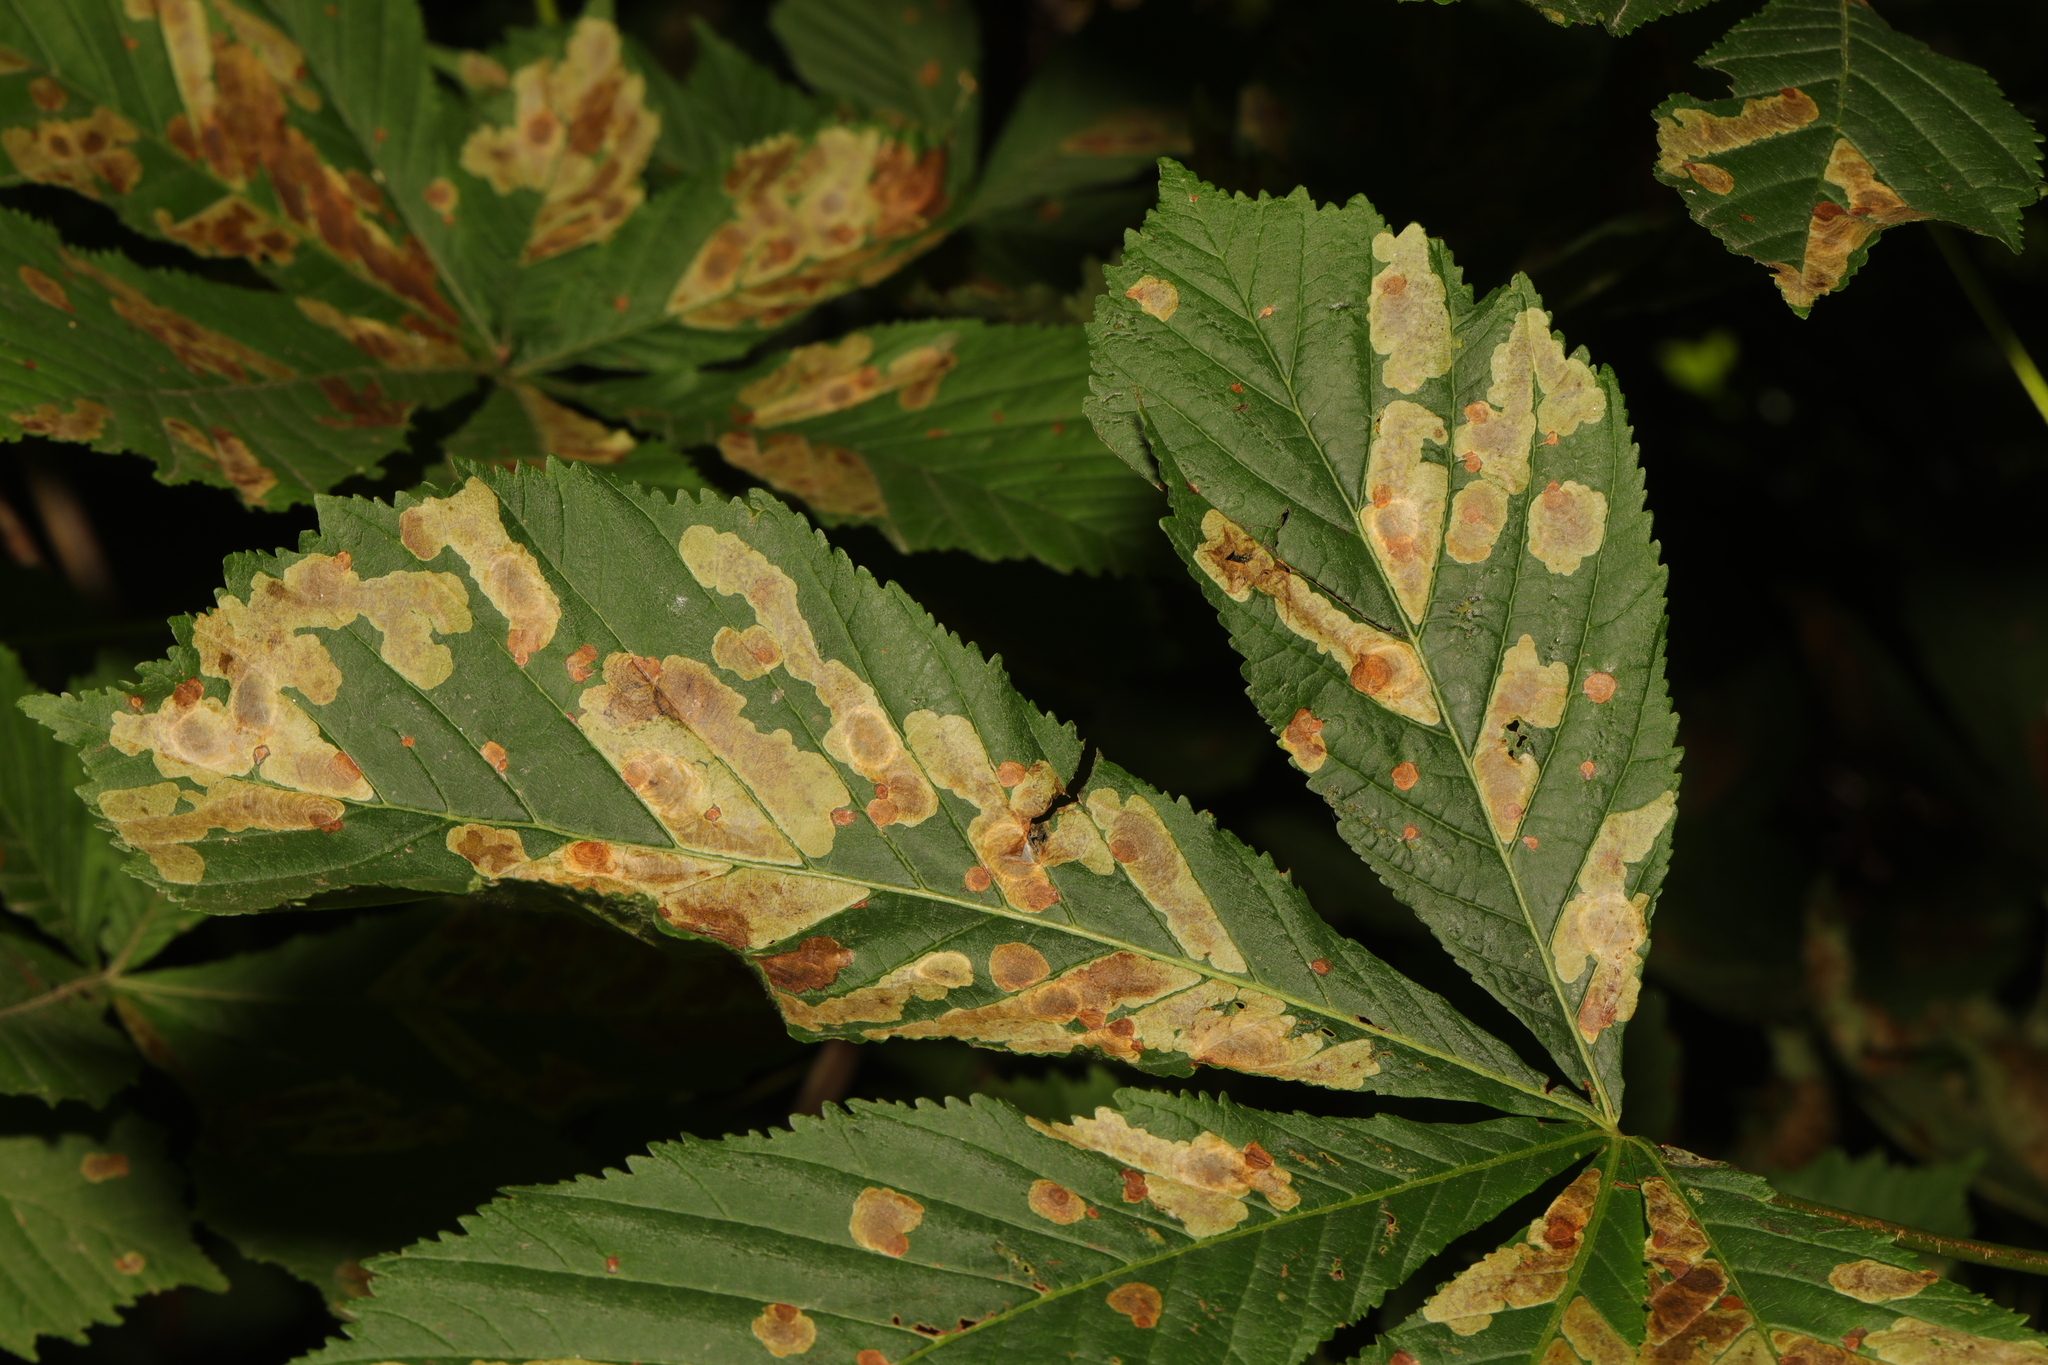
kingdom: Animalia
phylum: Arthropoda
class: Insecta
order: Lepidoptera
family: Gracillariidae
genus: Cameraria
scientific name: Cameraria ohridella
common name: Horse-chestnut leaf-miner
